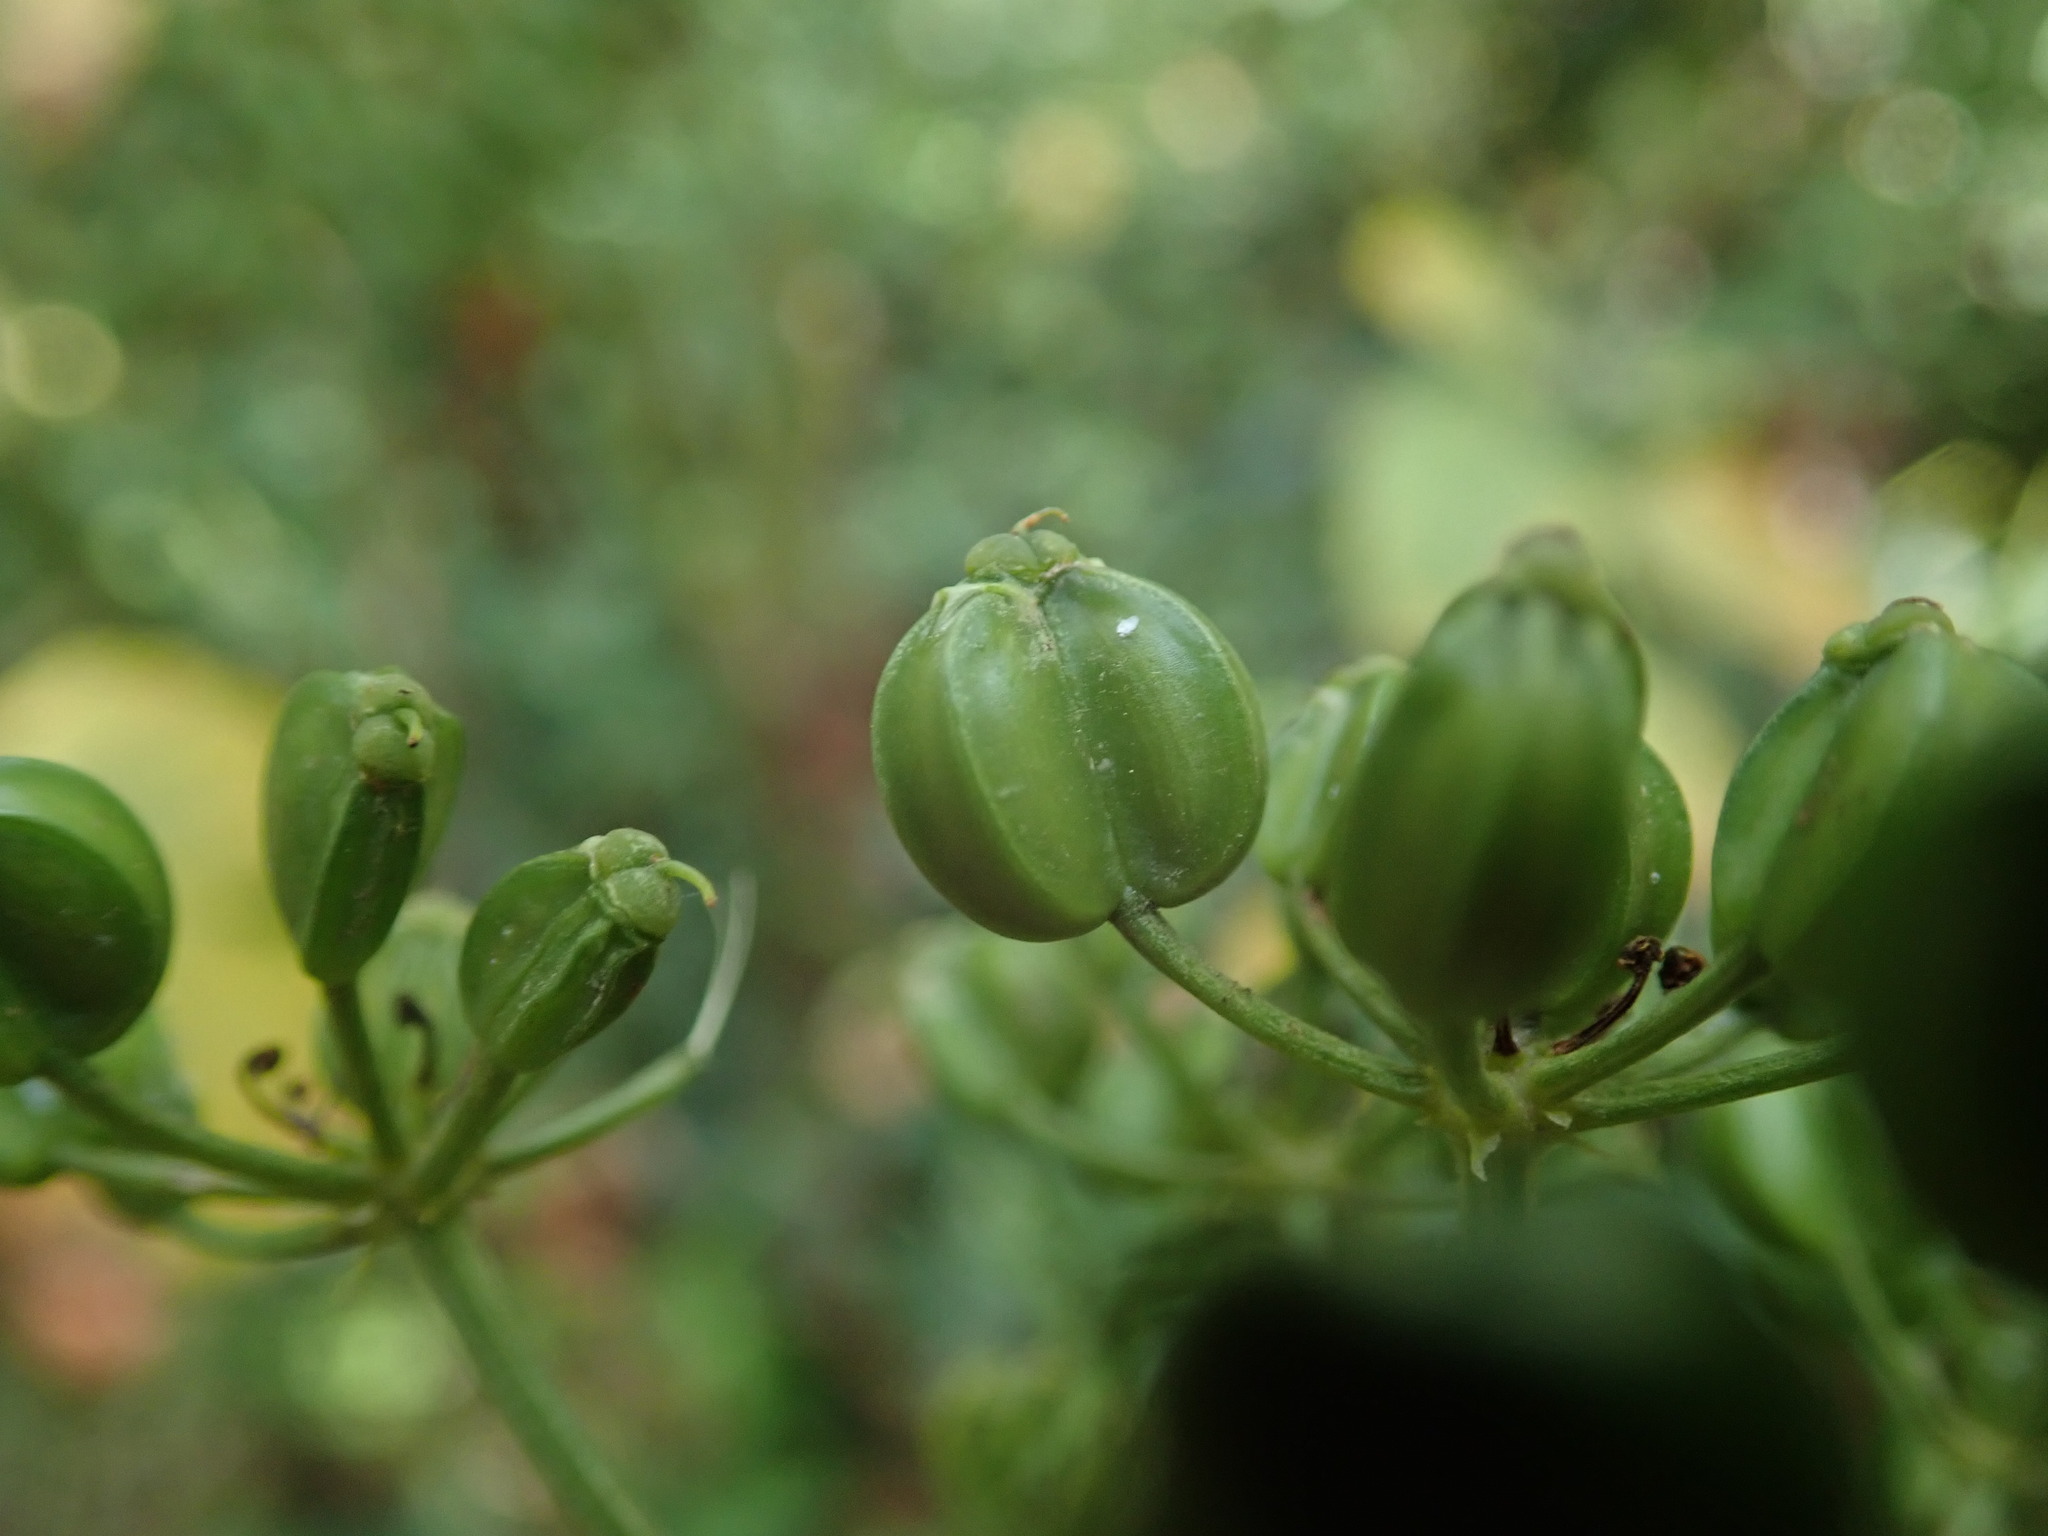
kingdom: Plantae
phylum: Tracheophyta
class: Magnoliopsida
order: Apiales
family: Apiaceae
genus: Smyrnium
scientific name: Smyrnium olusatrum
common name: Alexanders
